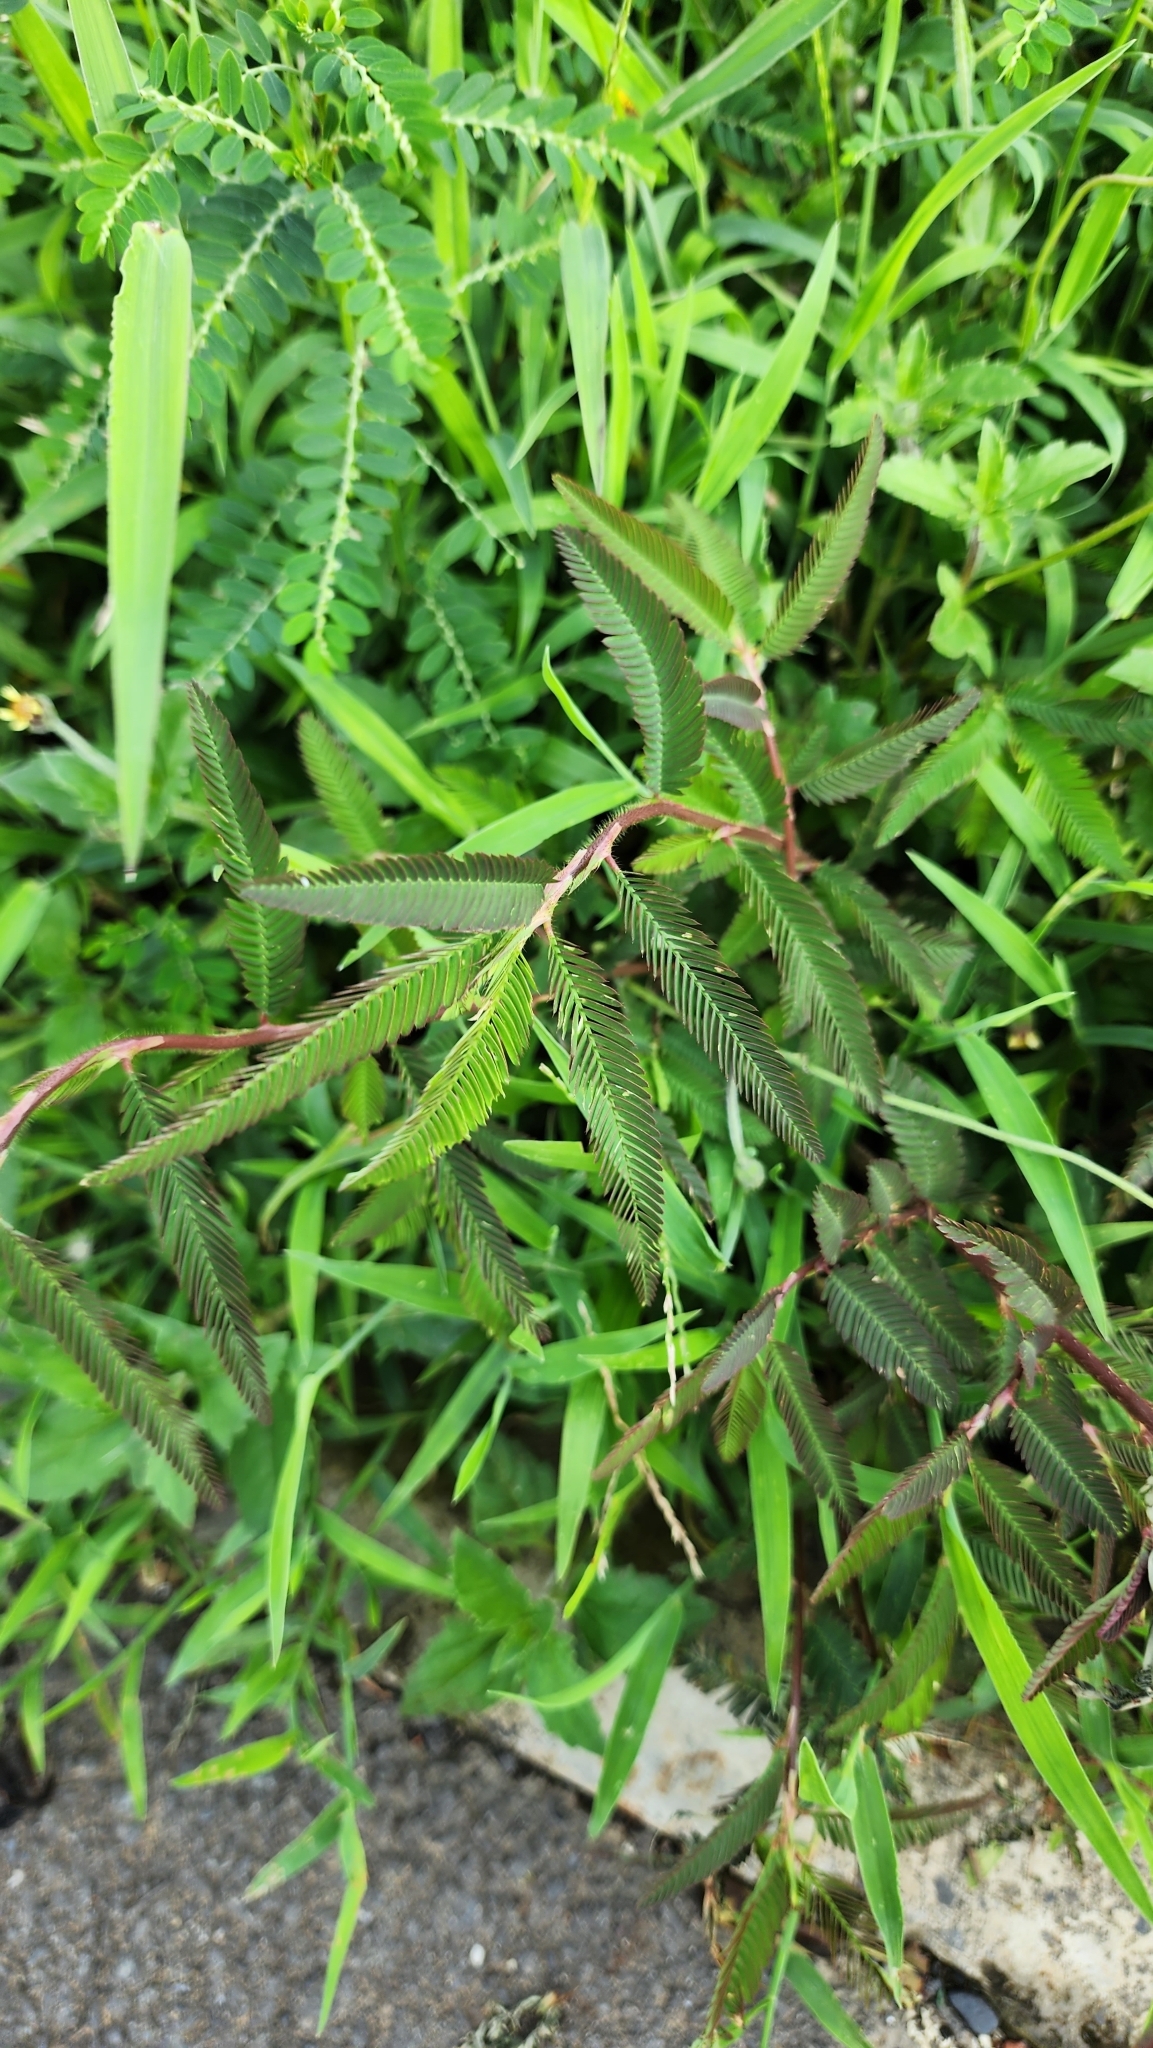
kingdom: Plantae
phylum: Tracheophyta
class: Magnoliopsida
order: Fabales
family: Fabaceae
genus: Aeschynomene
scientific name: Aeschynomene americana
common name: Joint-vetch
